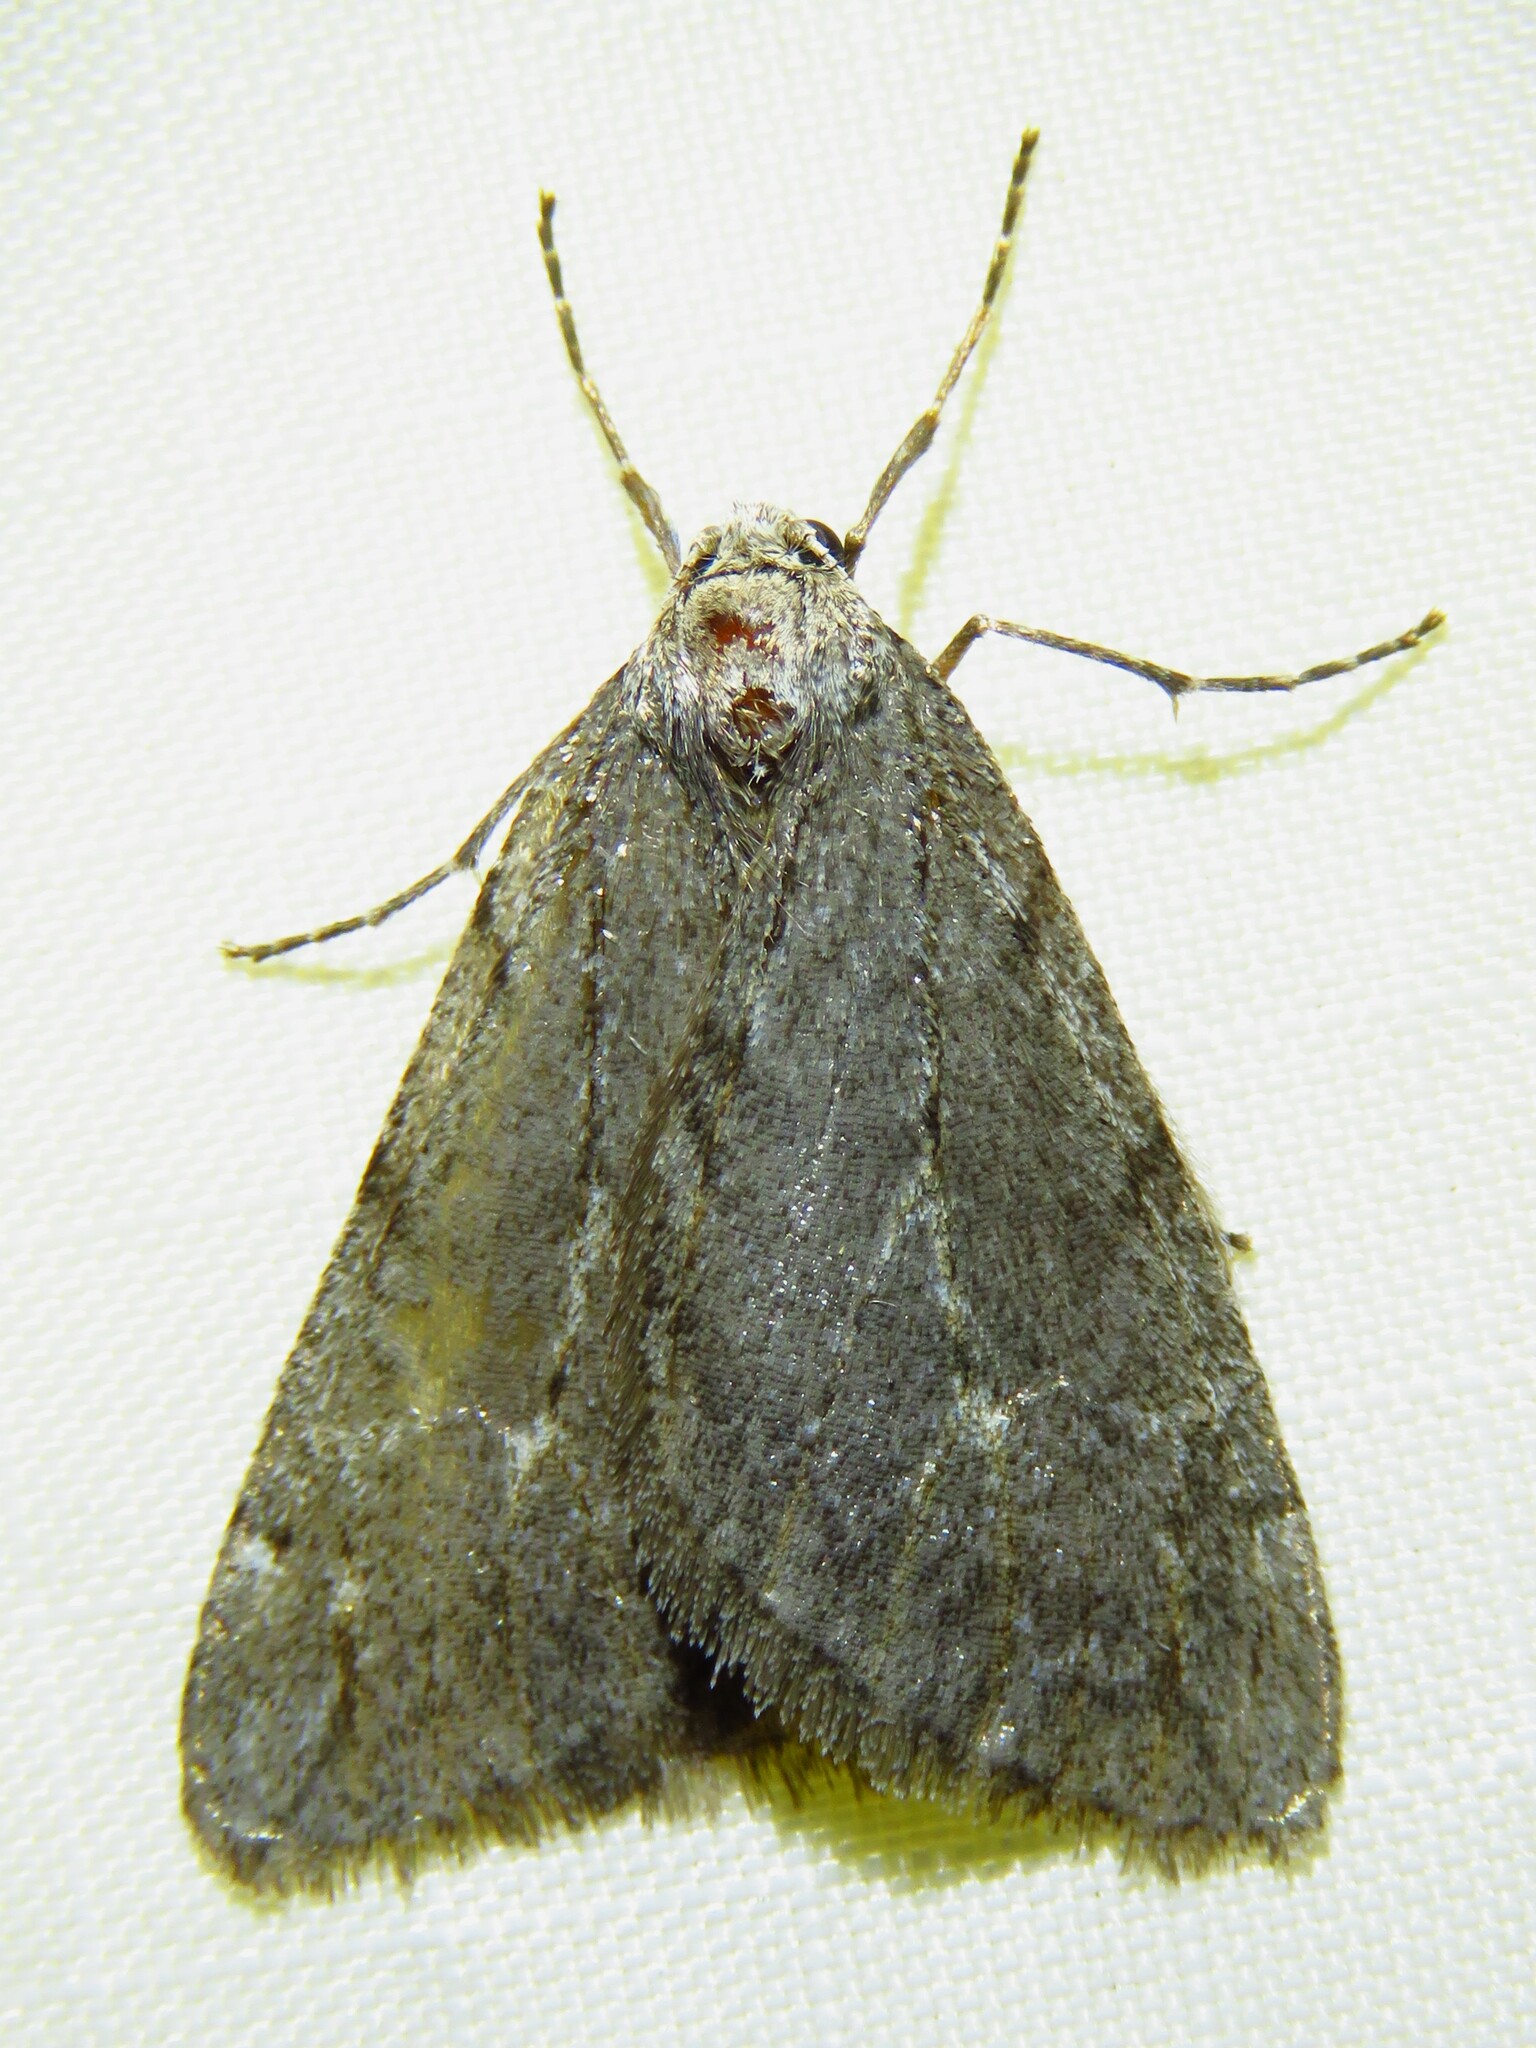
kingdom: Animalia
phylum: Arthropoda
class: Insecta
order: Lepidoptera
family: Geometridae
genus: Paleacrita
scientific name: Paleacrita vernata
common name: Spring cankerworm
